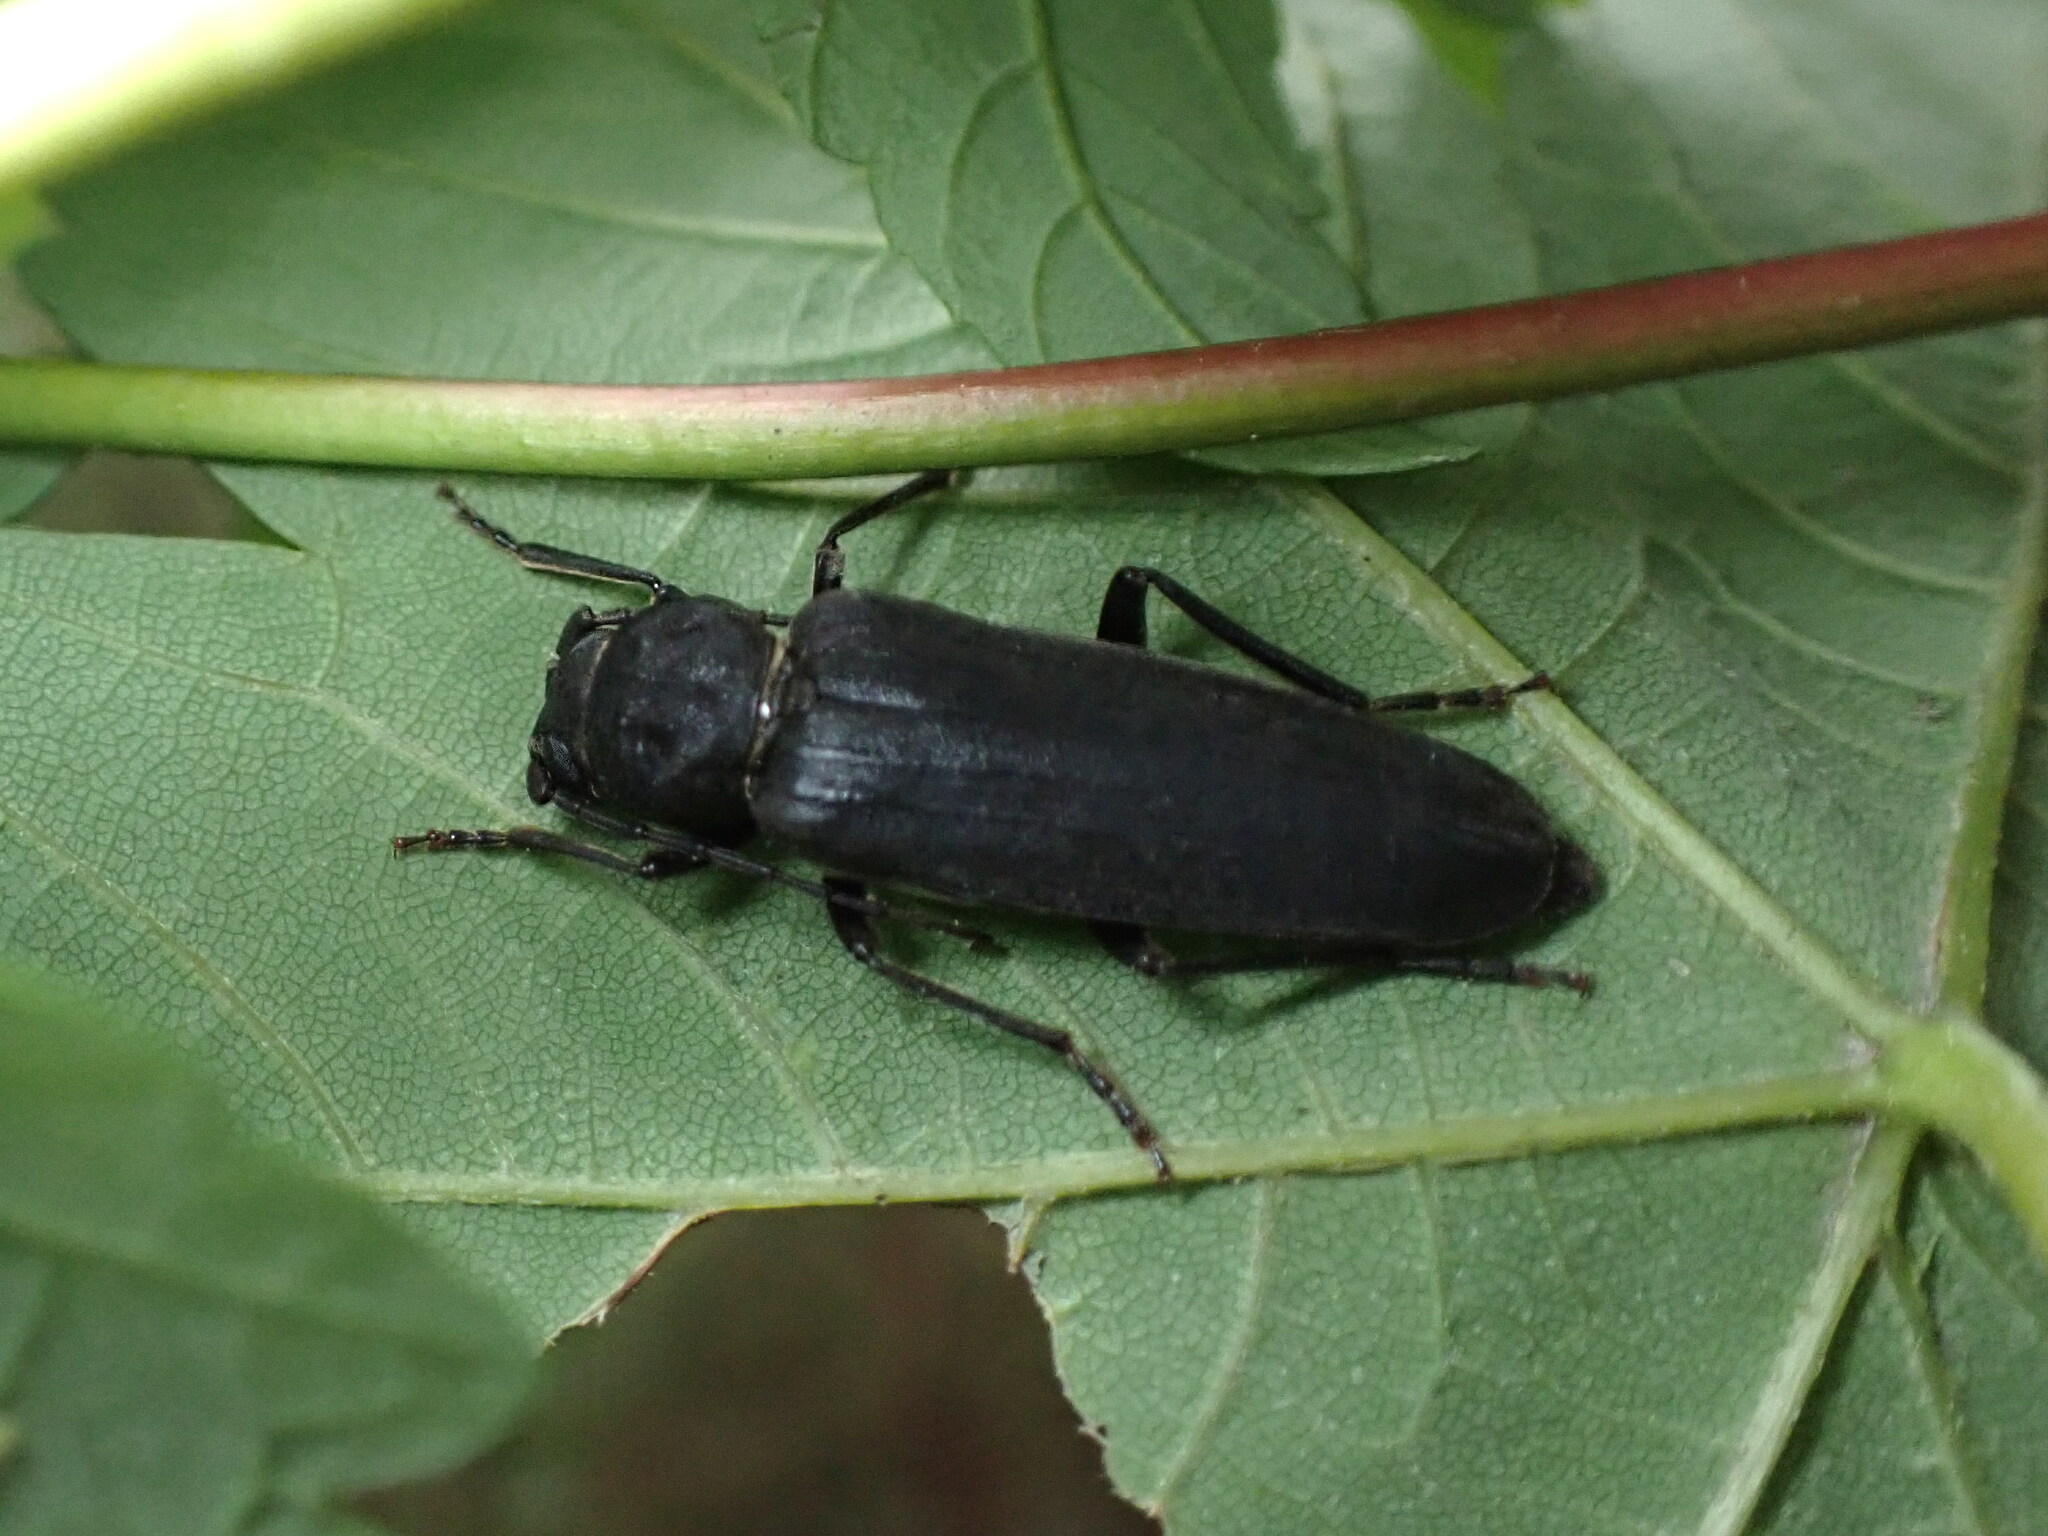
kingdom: Animalia
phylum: Arthropoda
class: Insecta
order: Coleoptera
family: Cerambycidae
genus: Arhopalus
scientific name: Arhopalus ferus
